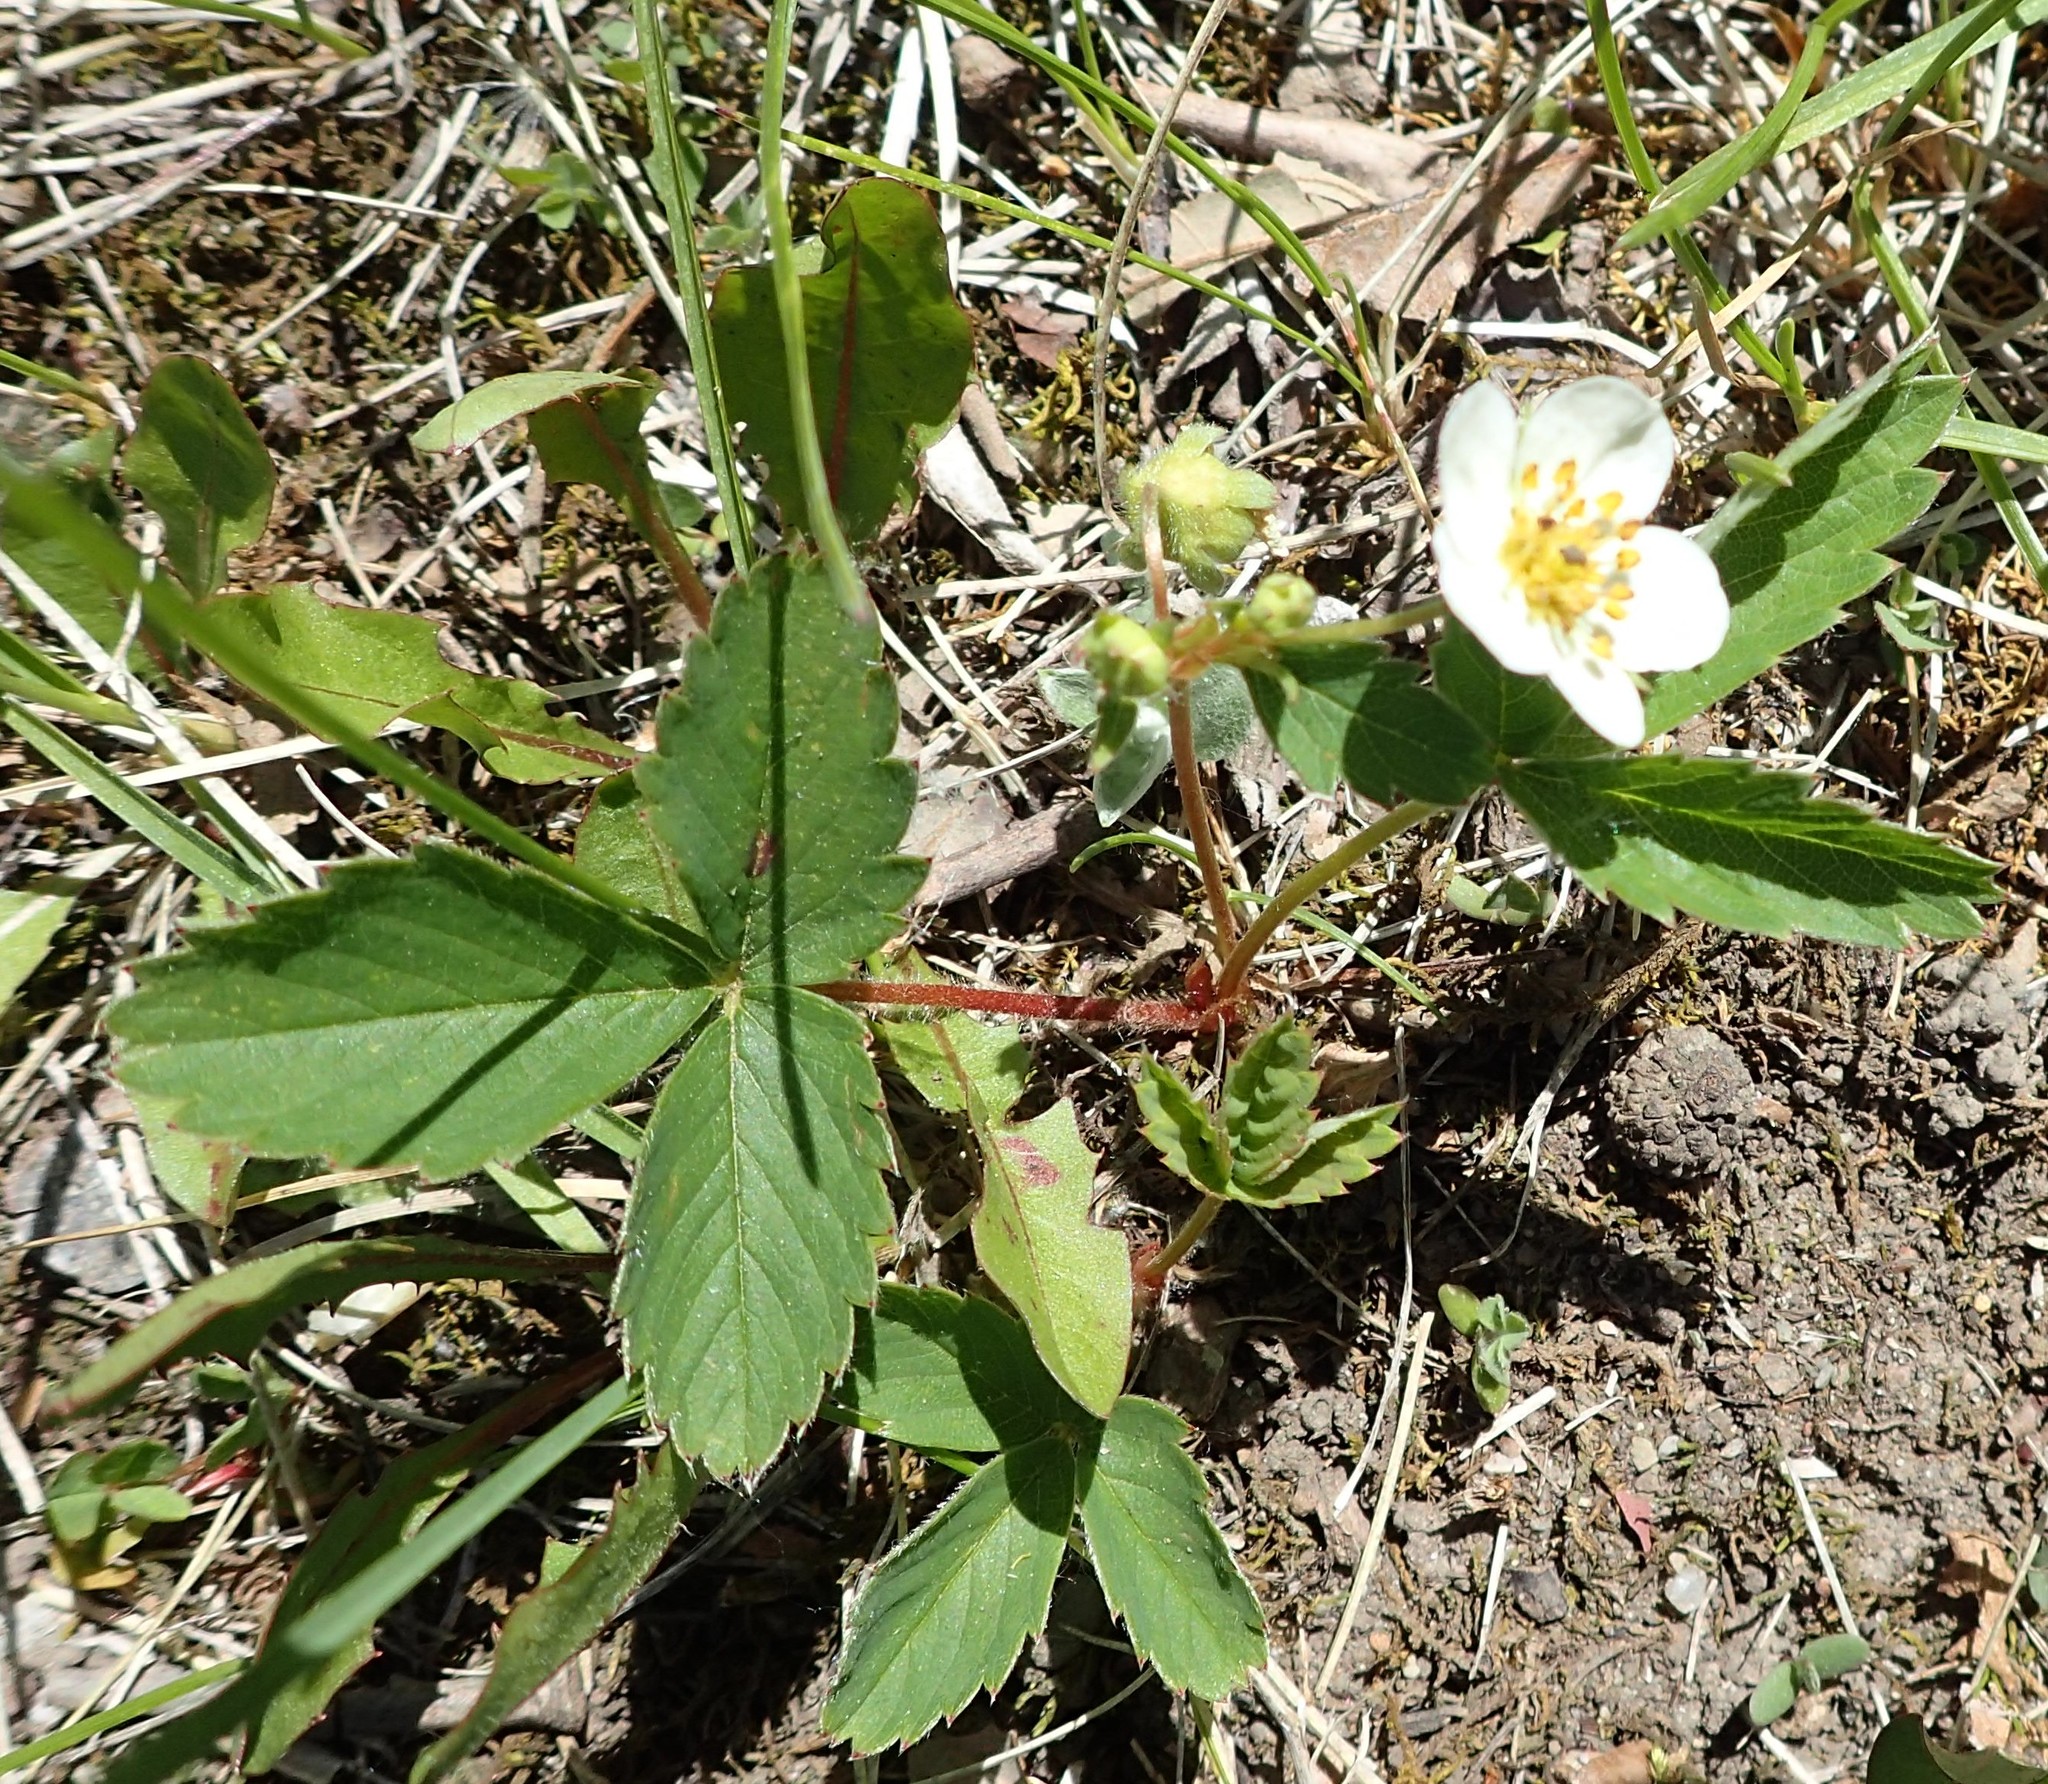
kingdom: Plantae
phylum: Tracheophyta
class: Magnoliopsida
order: Rosales
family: Rosaceae
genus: Fragaria
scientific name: Fragaria virginiana
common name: Thickleaved wild strawberry
